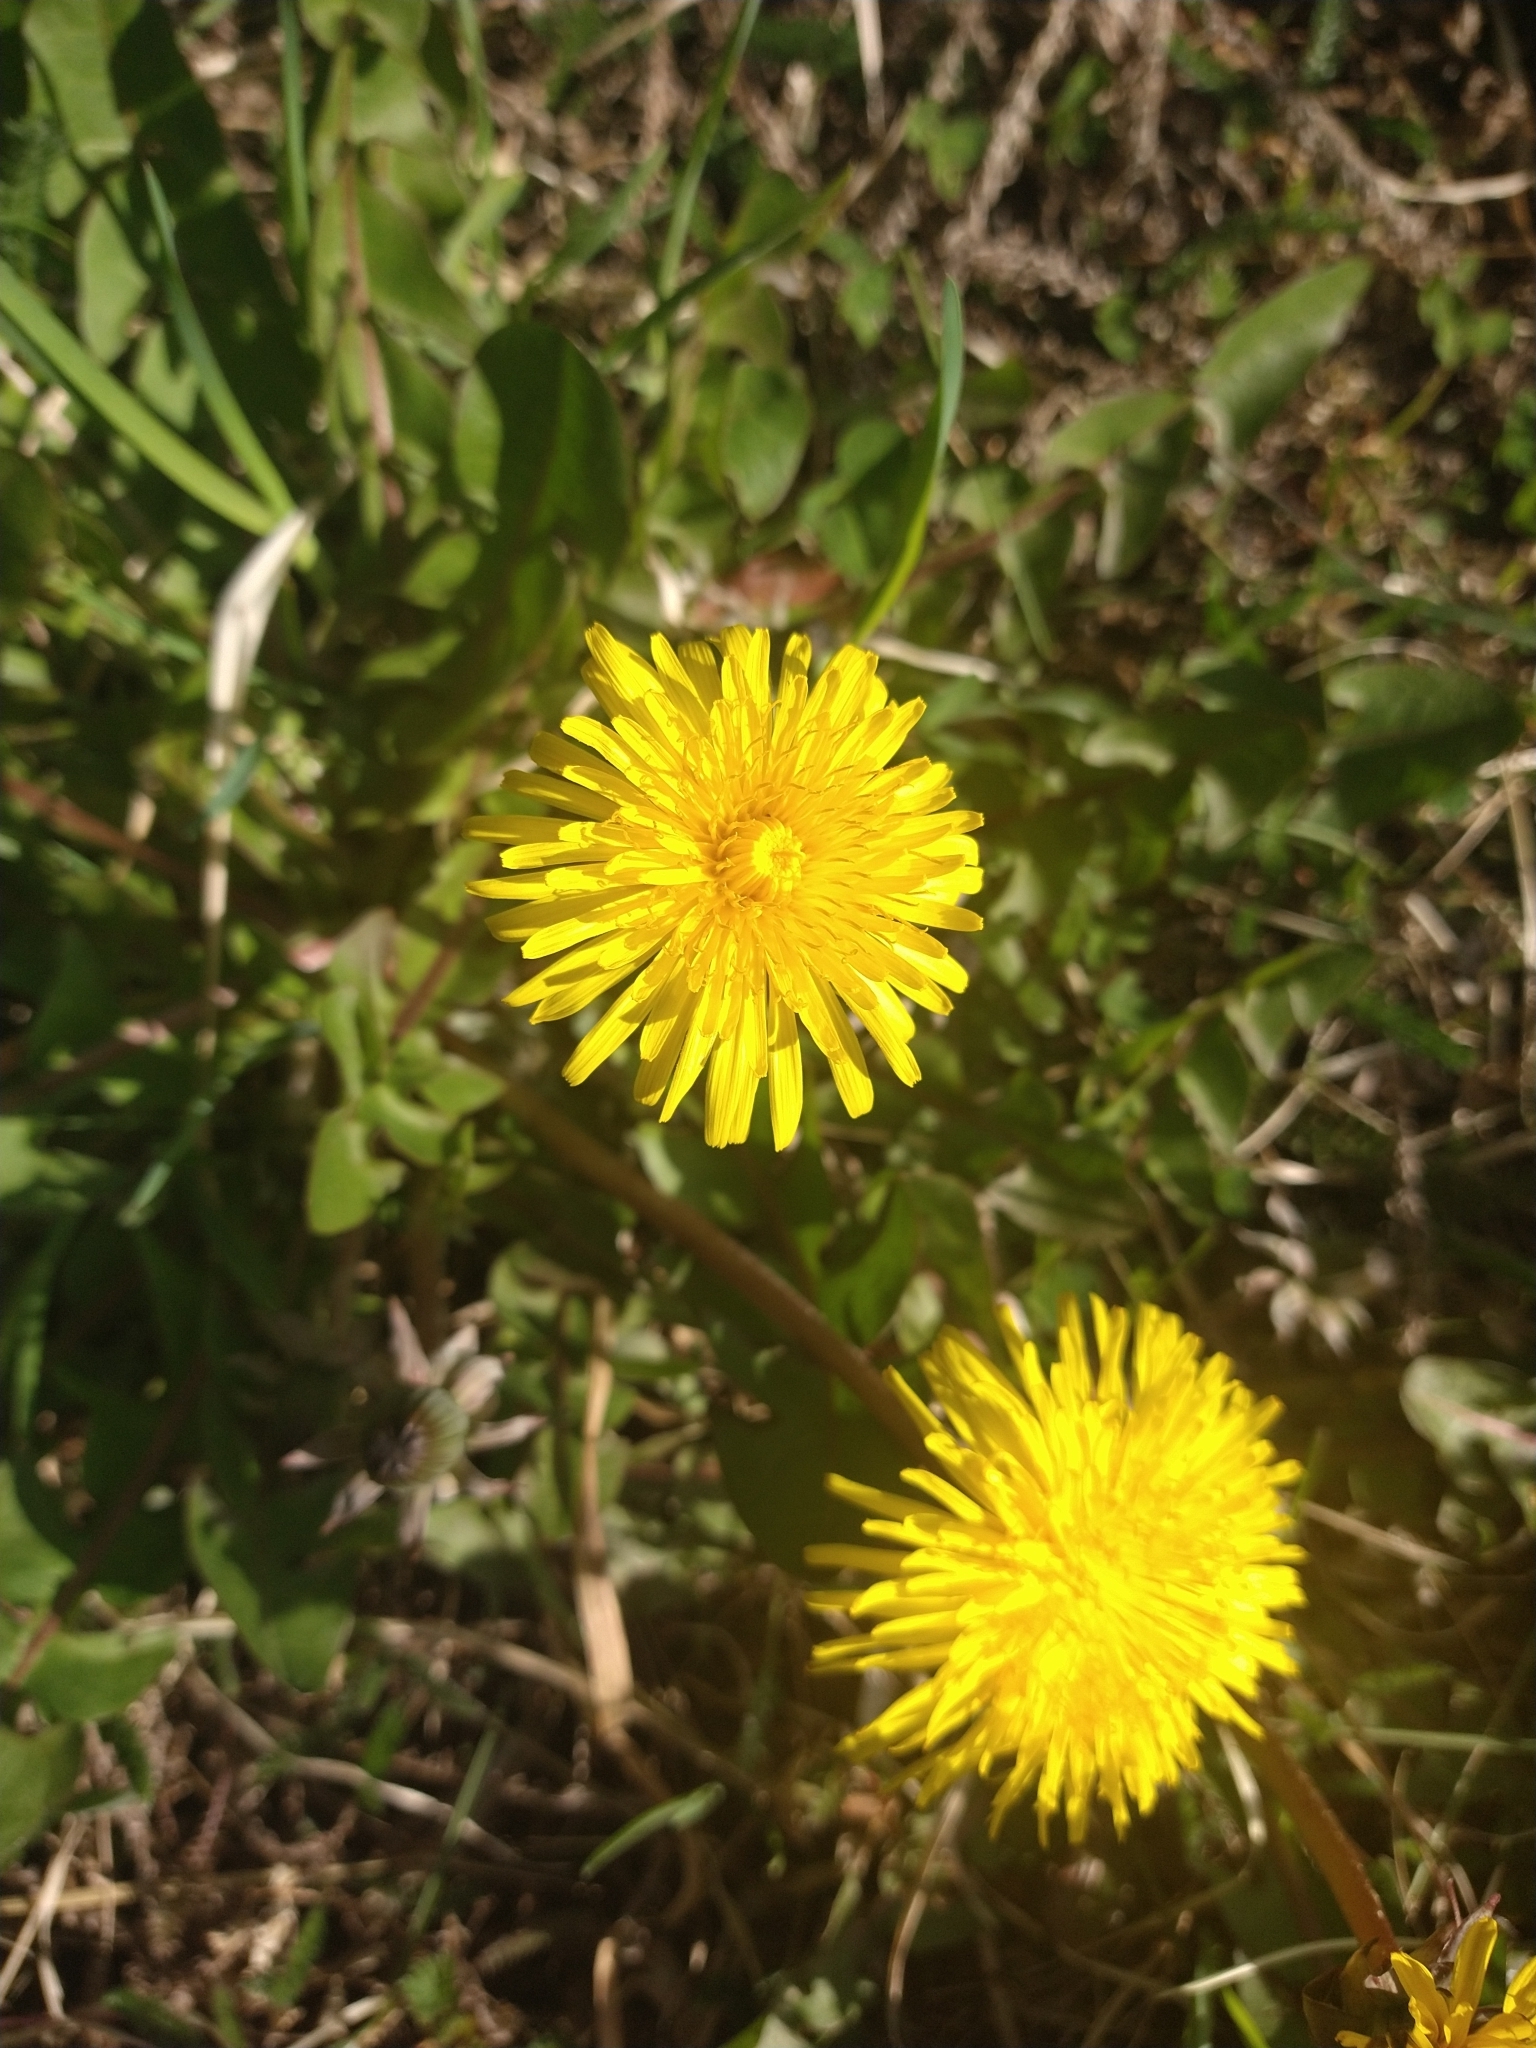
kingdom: Plantae
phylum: Tracheophyta
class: Magnoliopsida
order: Asterales
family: Asteraceae
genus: Taraxacum
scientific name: Taraxacum officinale
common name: Common dandelion
